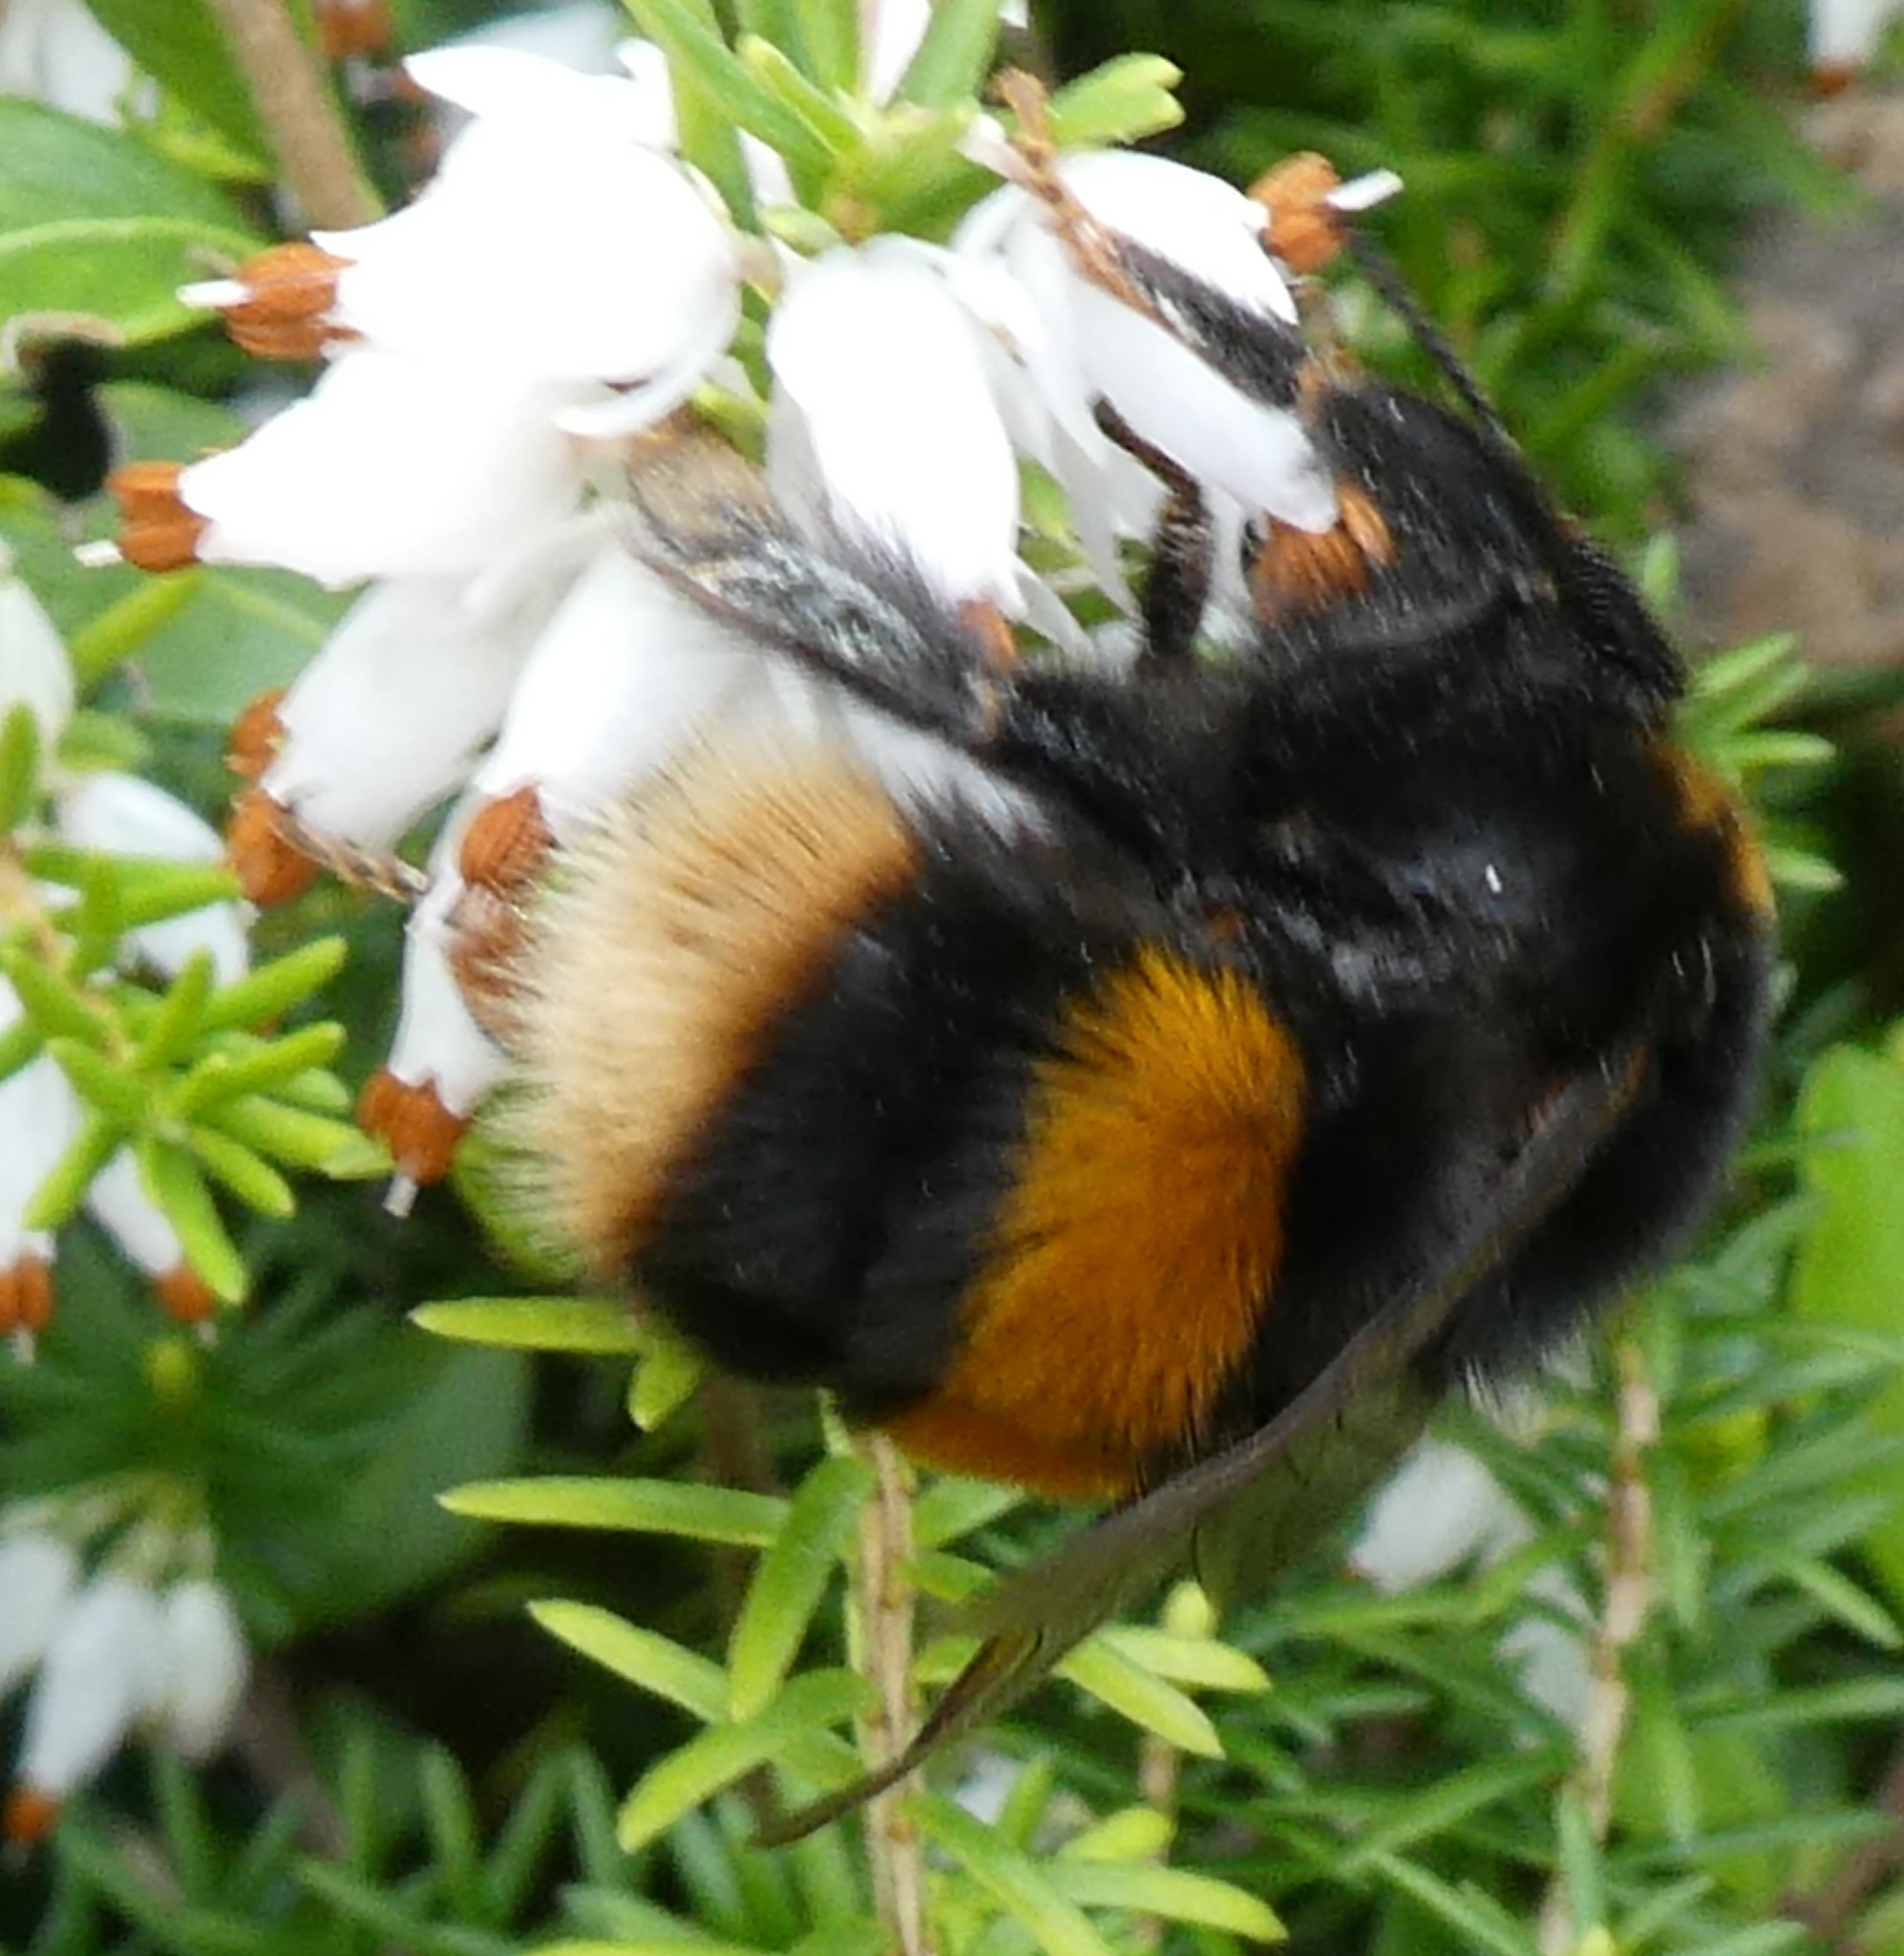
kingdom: Animalia
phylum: Arthropoda
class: Insecta
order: Hymenoptera
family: Apidae
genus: Bombus
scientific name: Bombus terrestris
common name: Buff-tailed bumblebee
